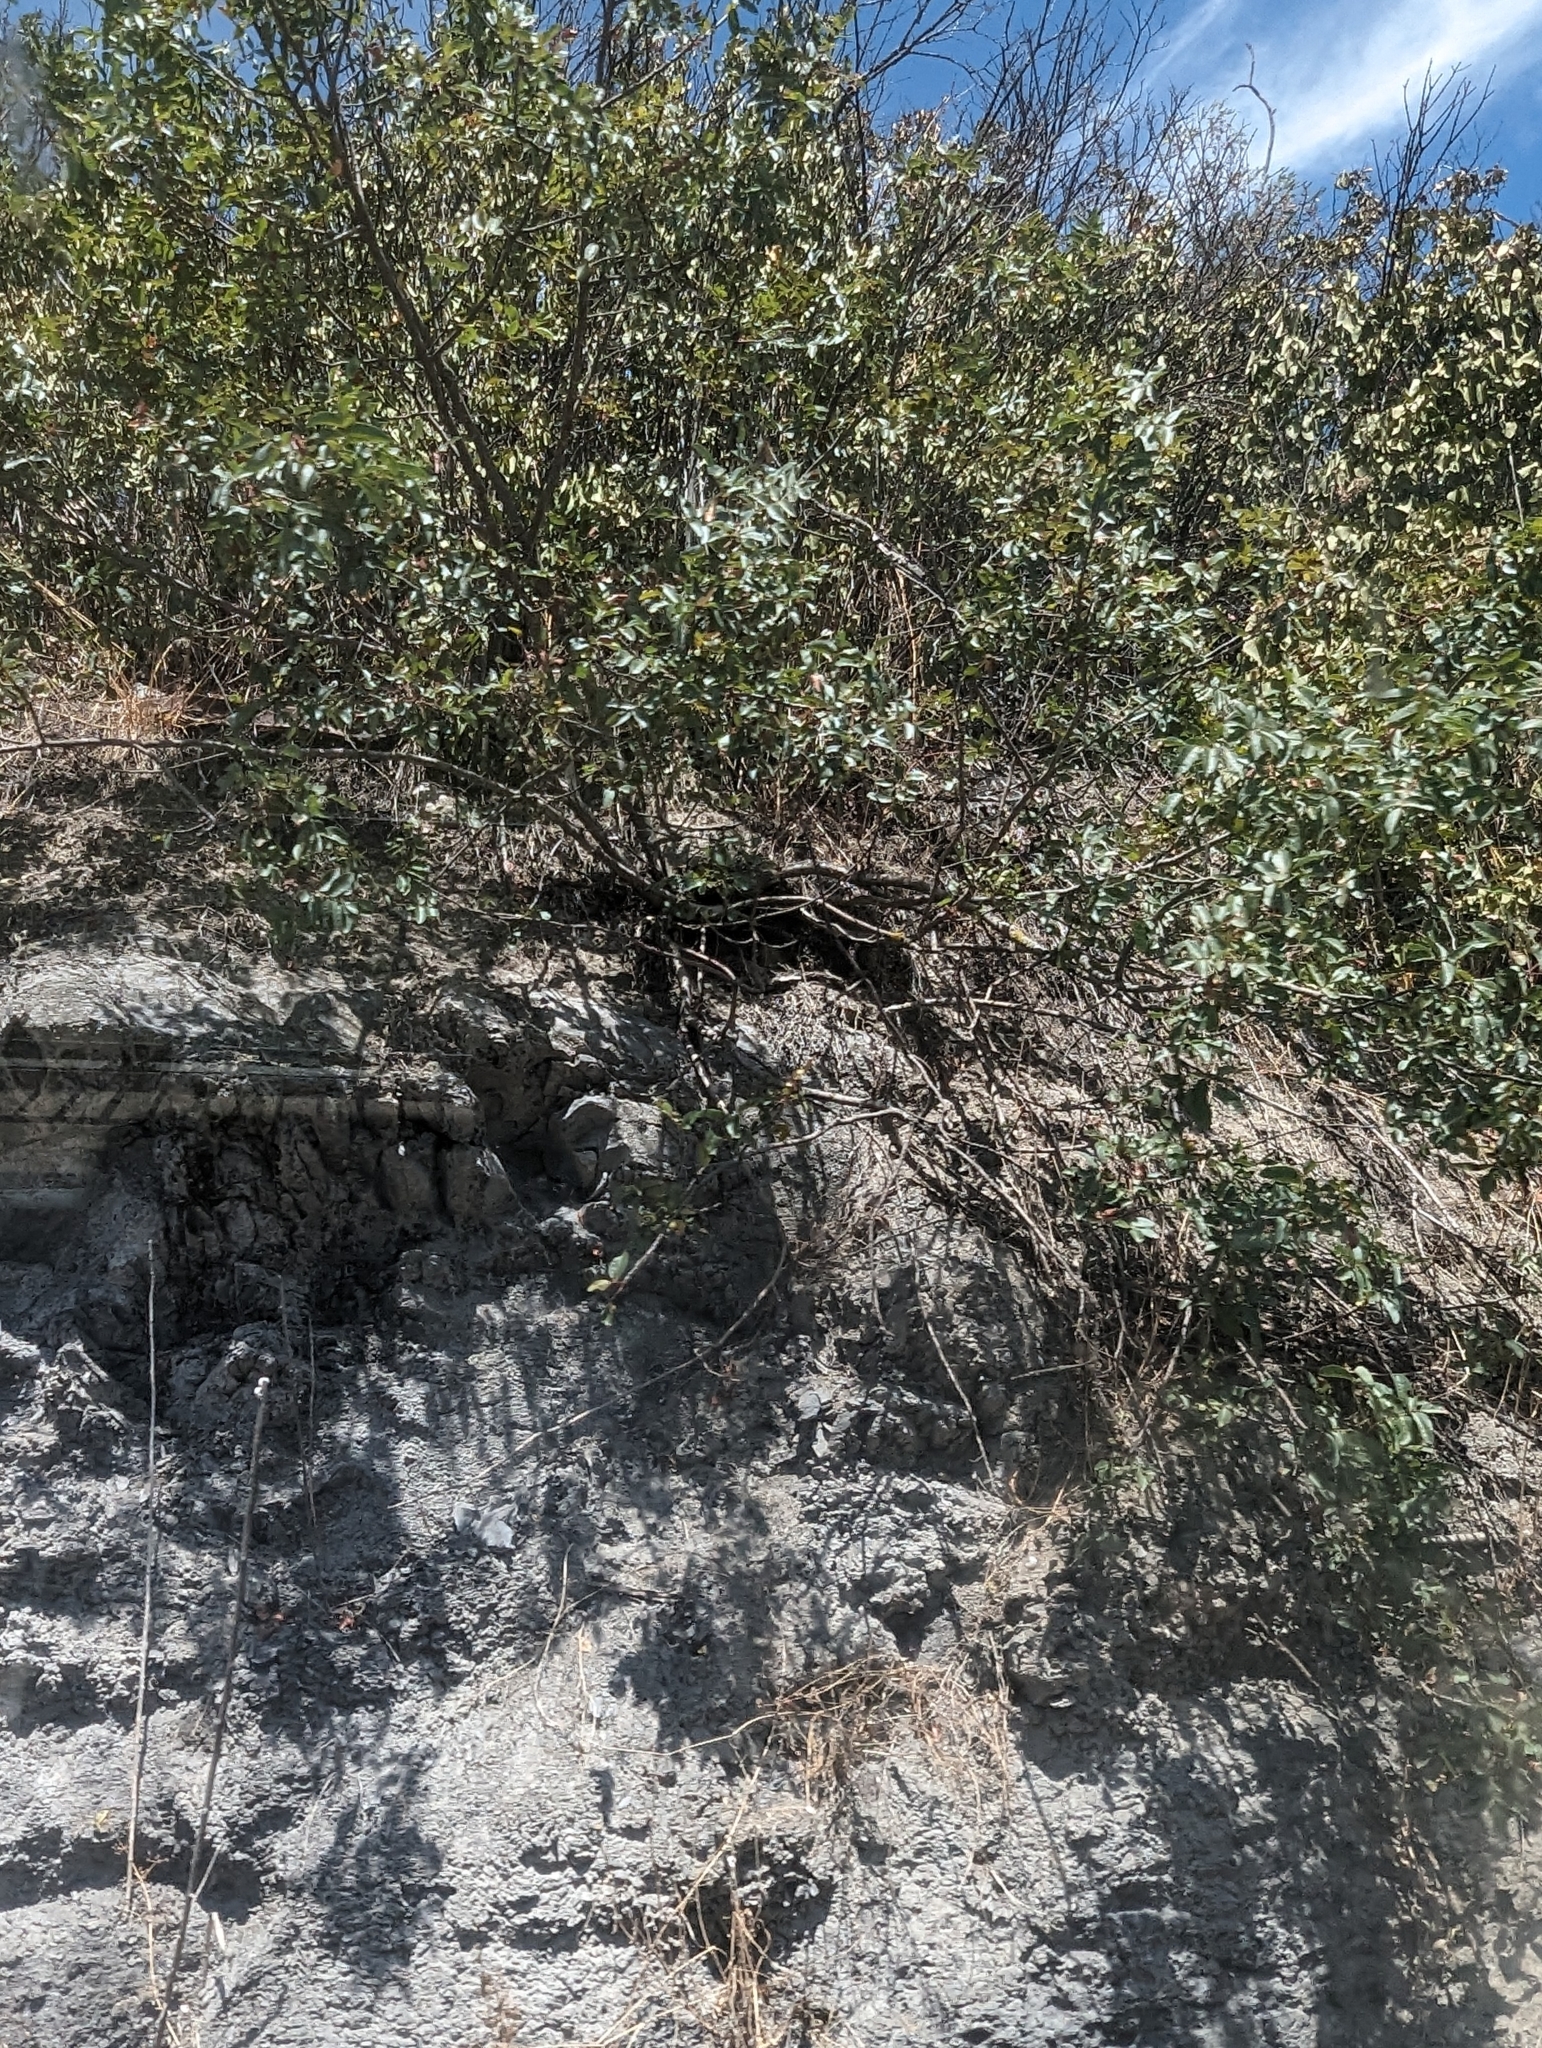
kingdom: Plantae
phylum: Tracheophyta
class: Magnoliopsida
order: Sapindales
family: Anacardiaceae
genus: Pistacia
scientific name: Pistacia terebinthus
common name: Terebinth
